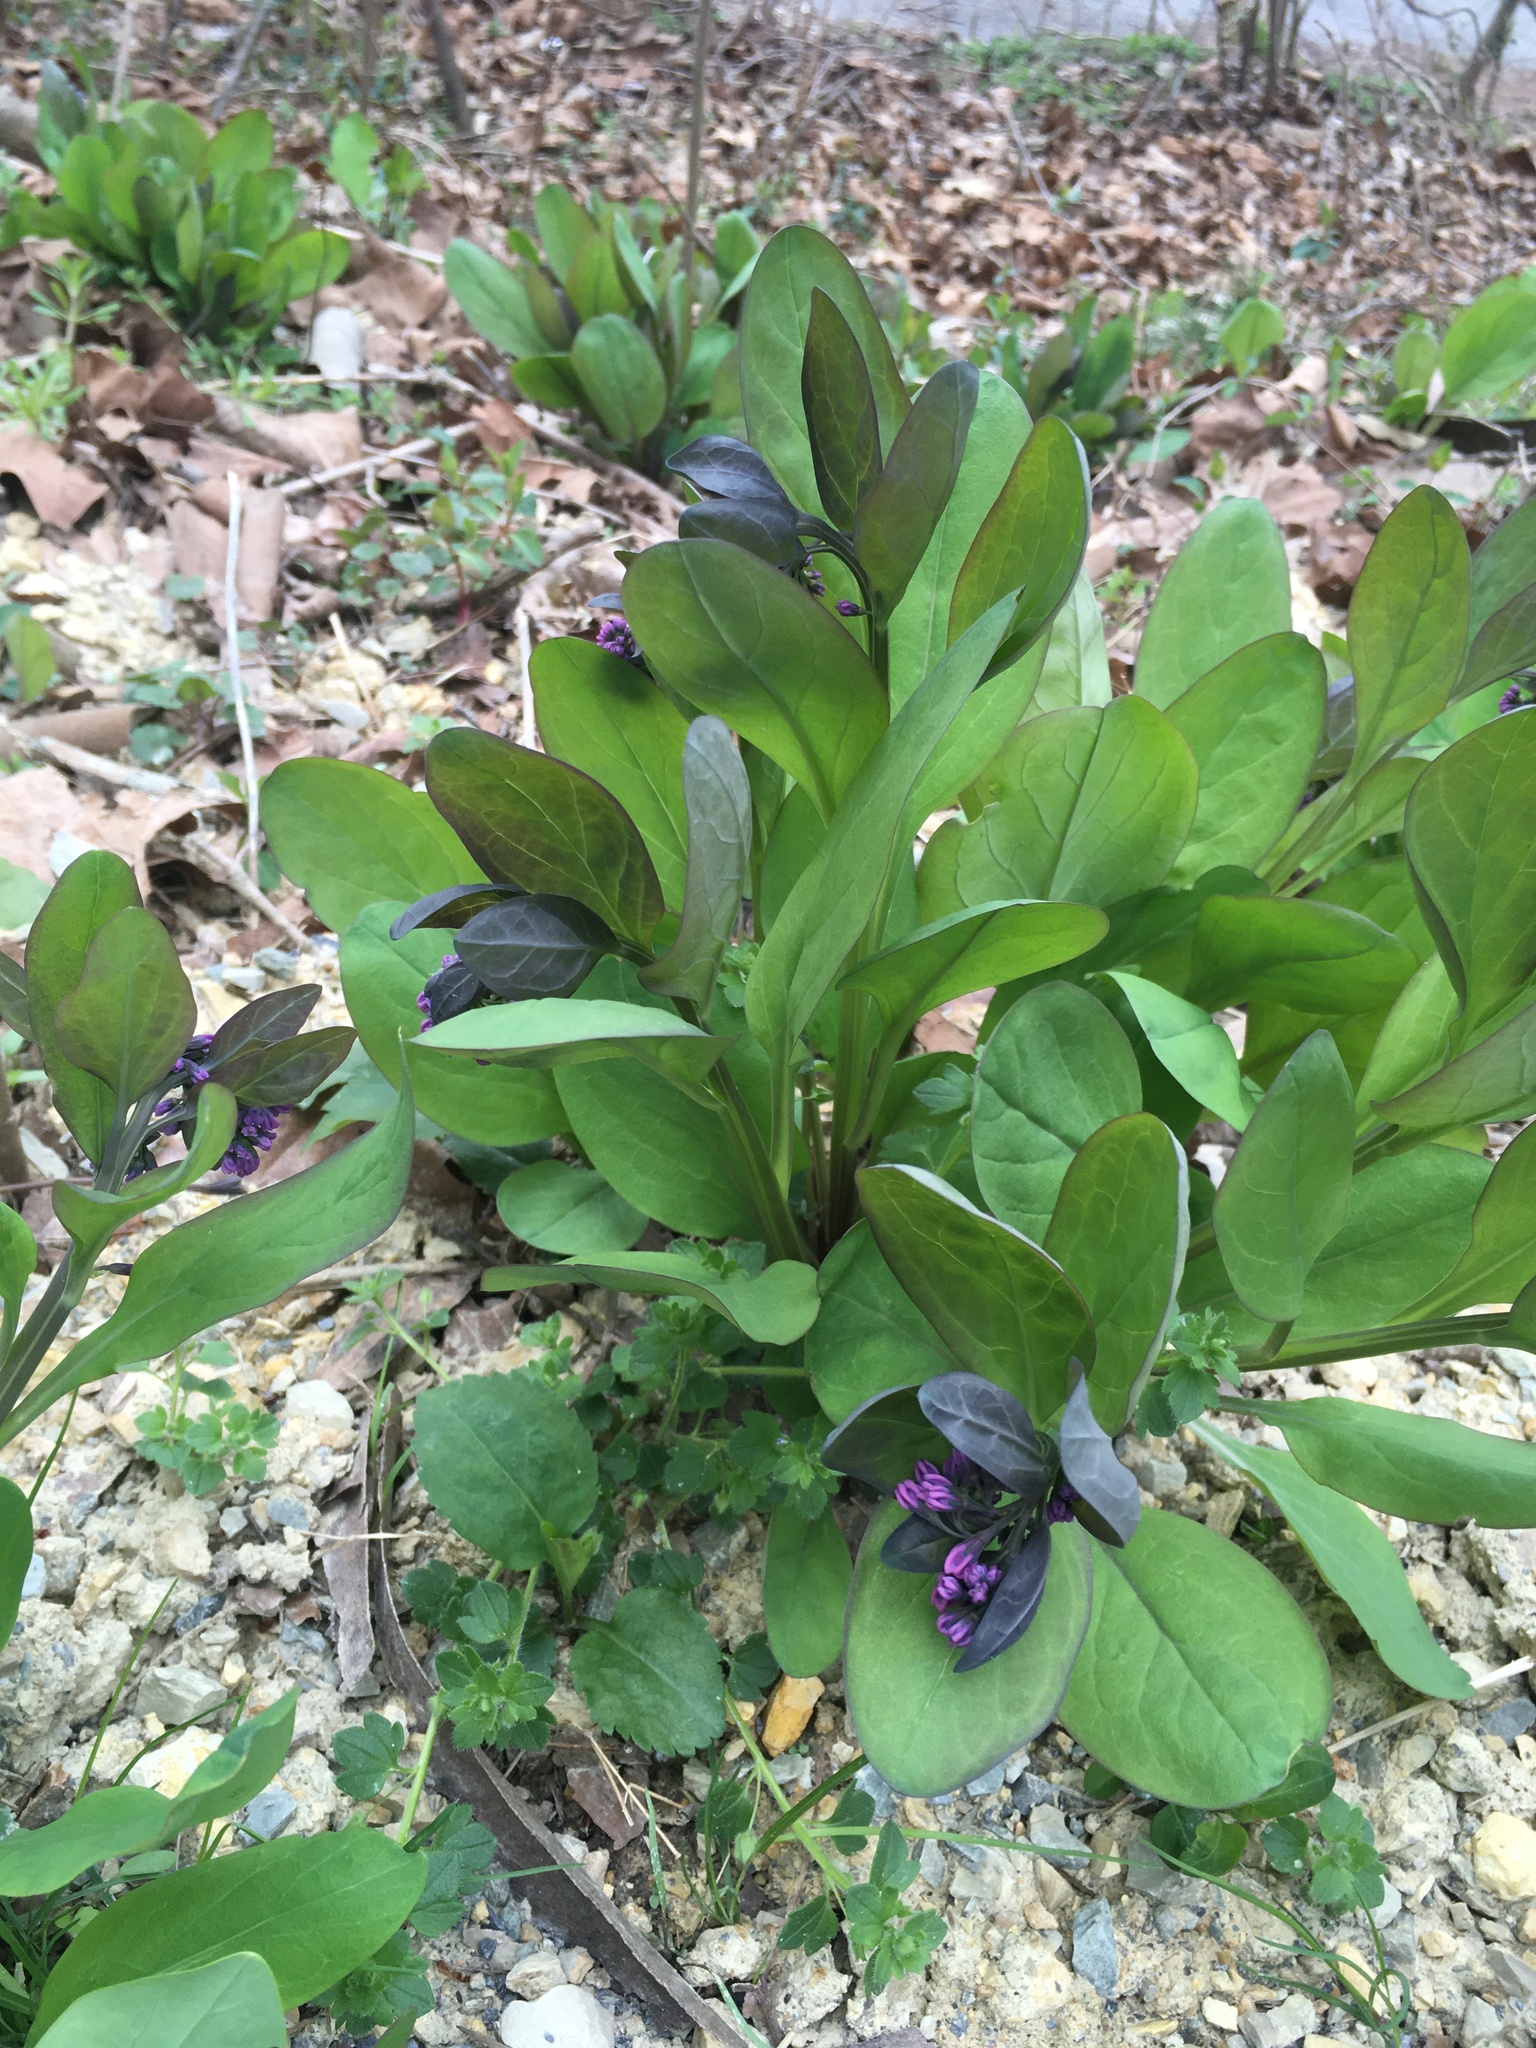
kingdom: Plantae
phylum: Tracheophyta
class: Magnoliopsida
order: Boraginales
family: Boraginaceae
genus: Mertensia
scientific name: Mertensia virginica
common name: Virginia bluebells
